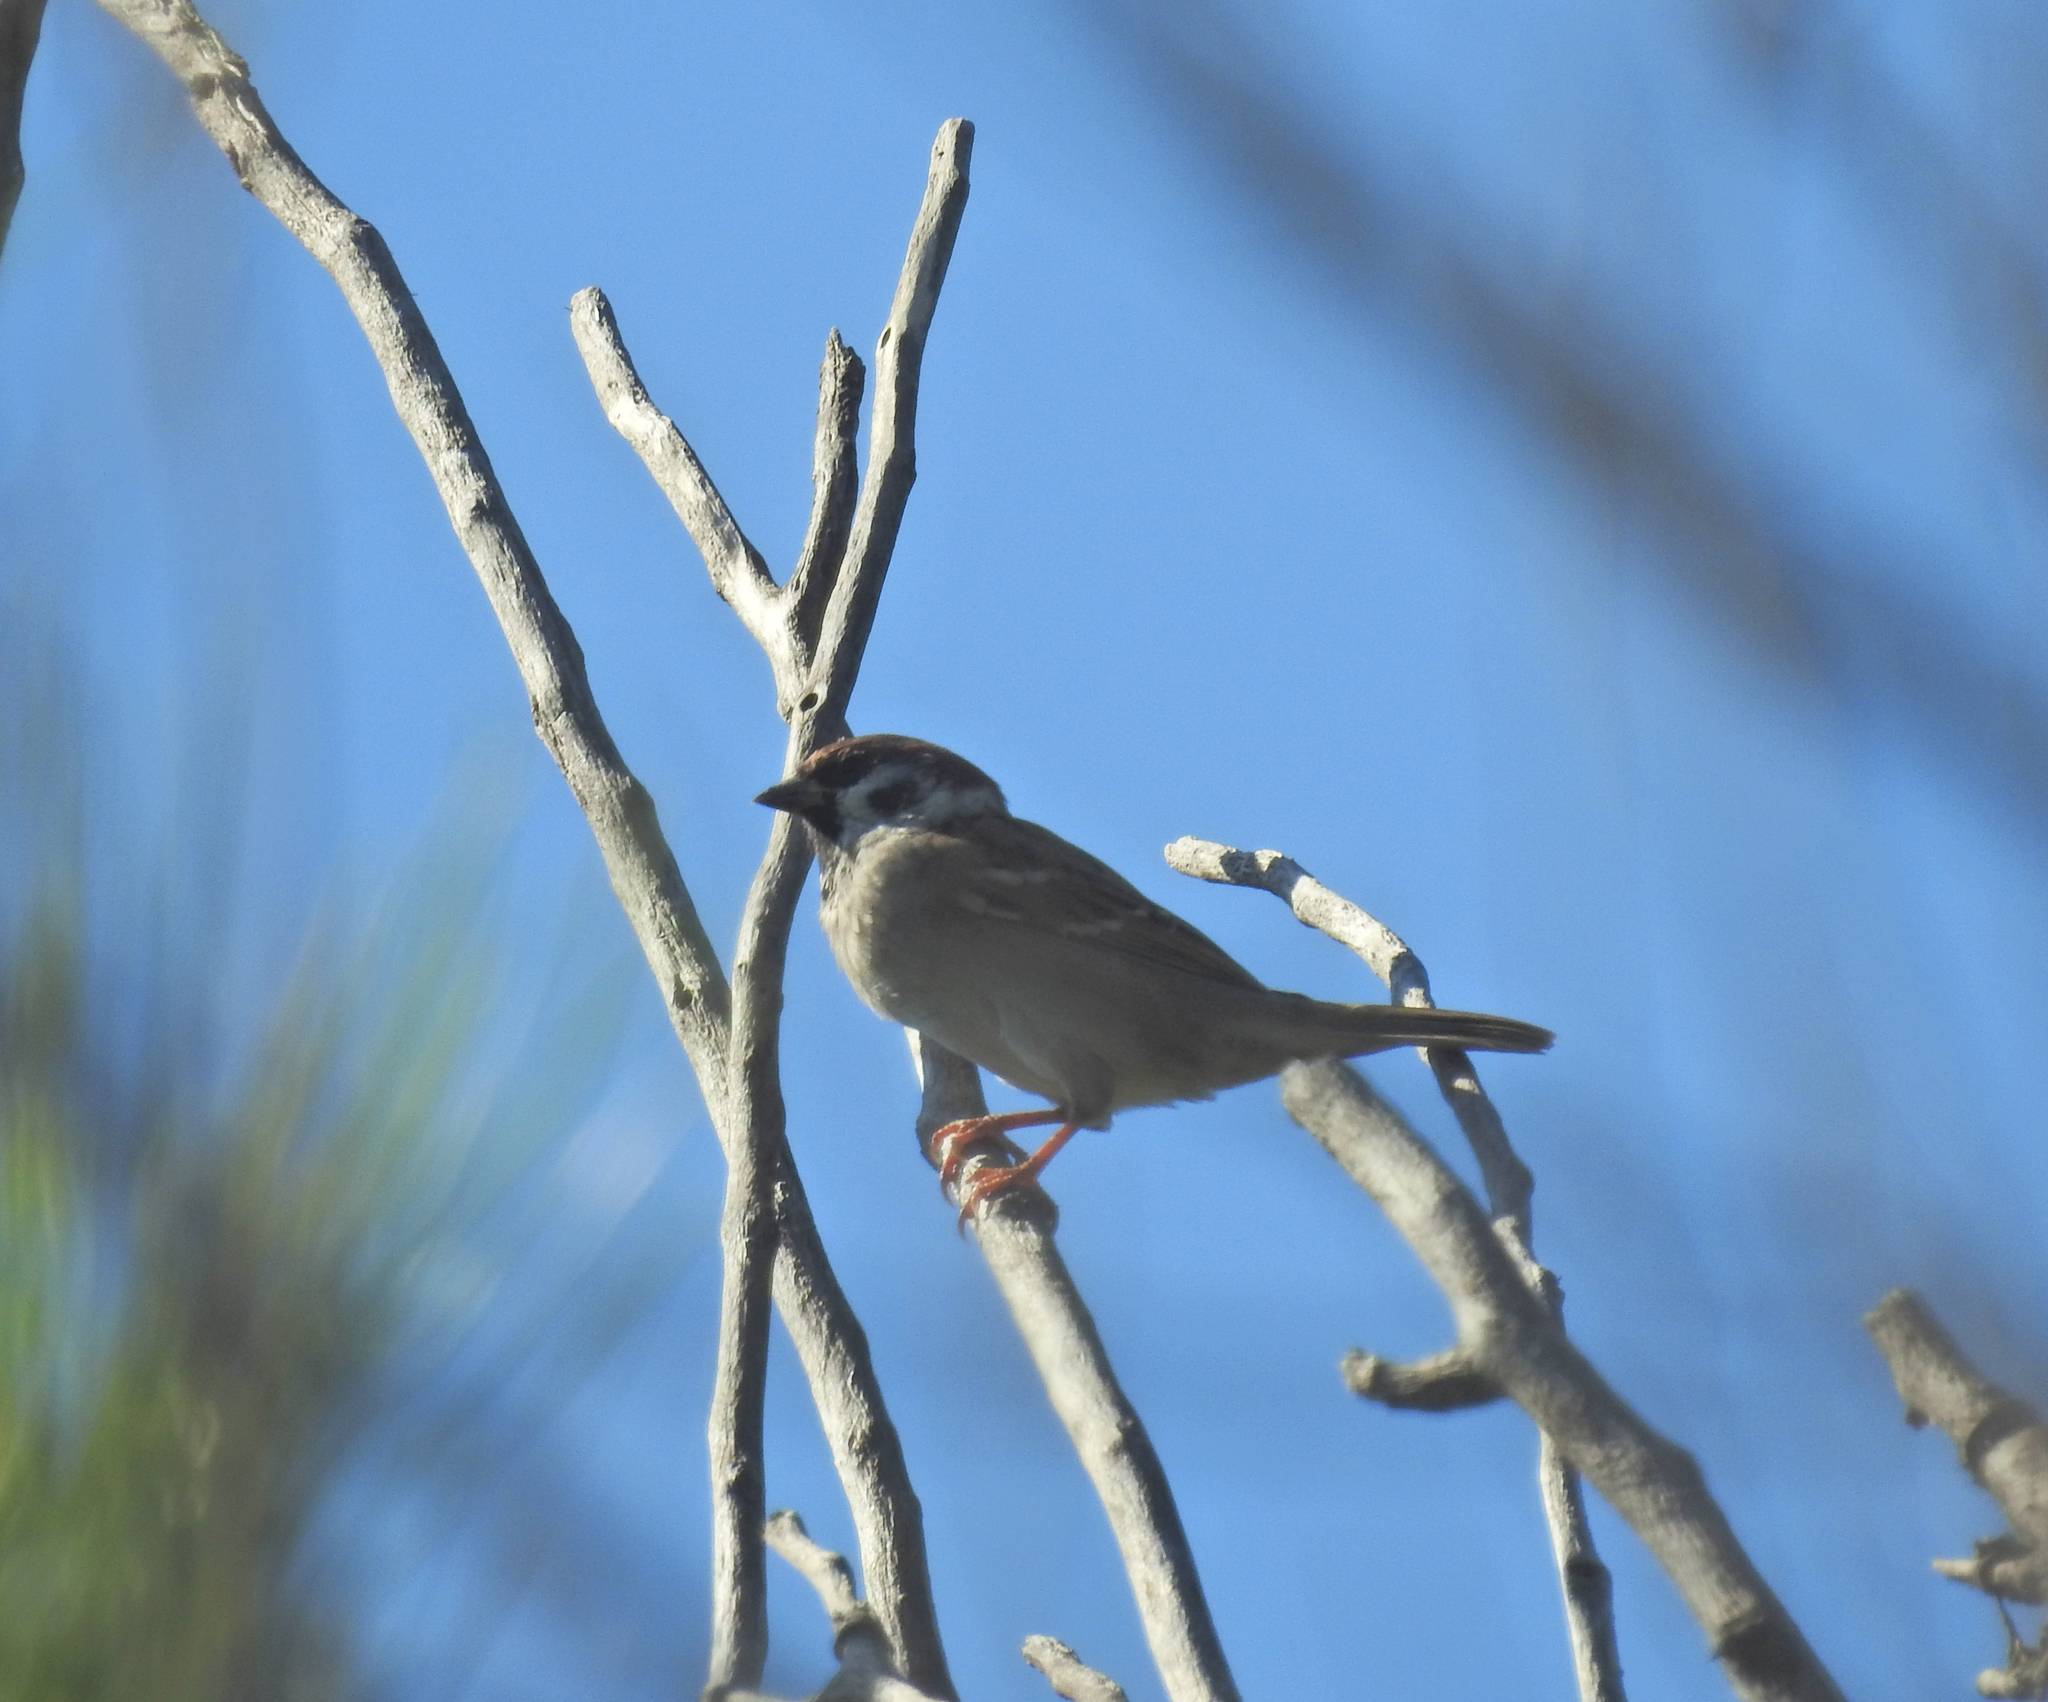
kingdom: Animalia
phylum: Chordata
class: Aves
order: Passeriformes
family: Passeridae
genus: Passer
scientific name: Passer montanus
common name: Eurasian tree sparrow
